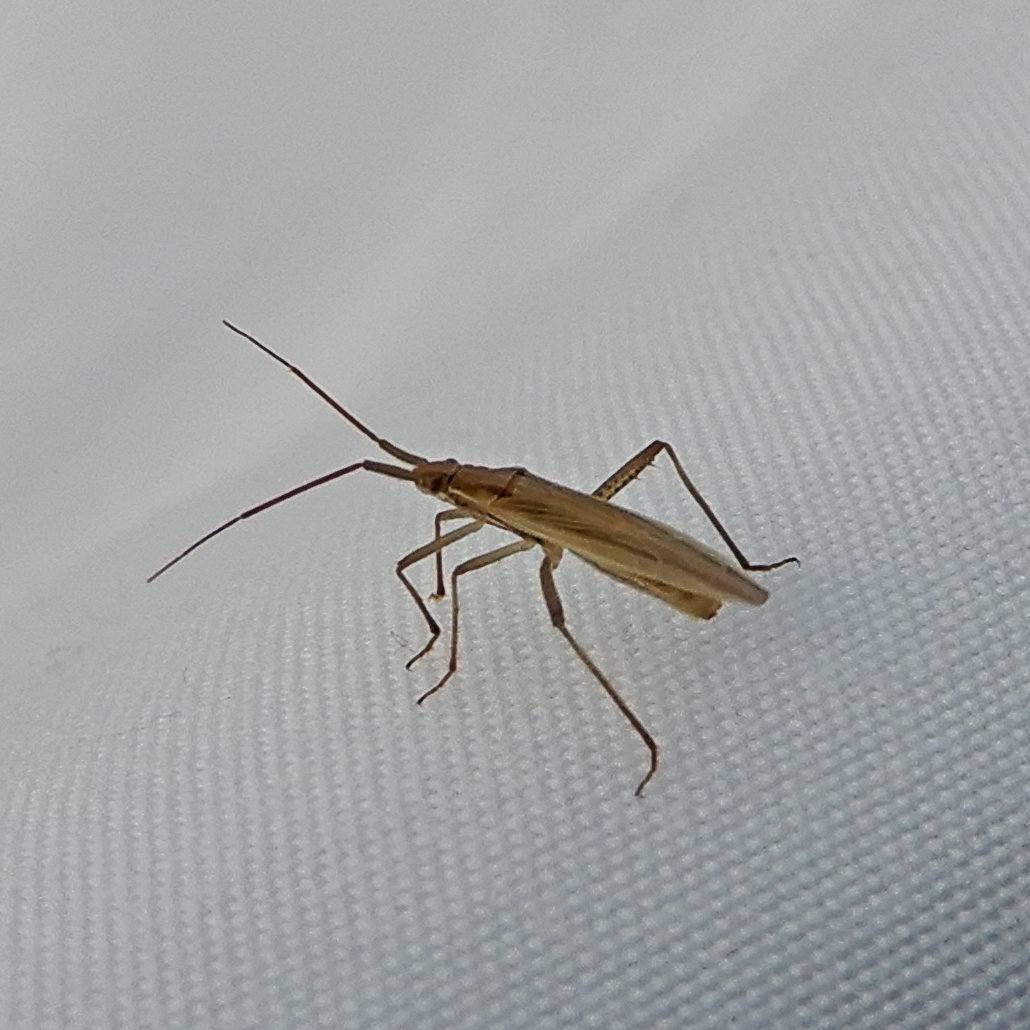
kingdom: Animalia
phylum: Arthropoda
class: Insecta
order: Hemiptera
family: Miridae
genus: Stenodema
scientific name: Stenodema trispinosa
